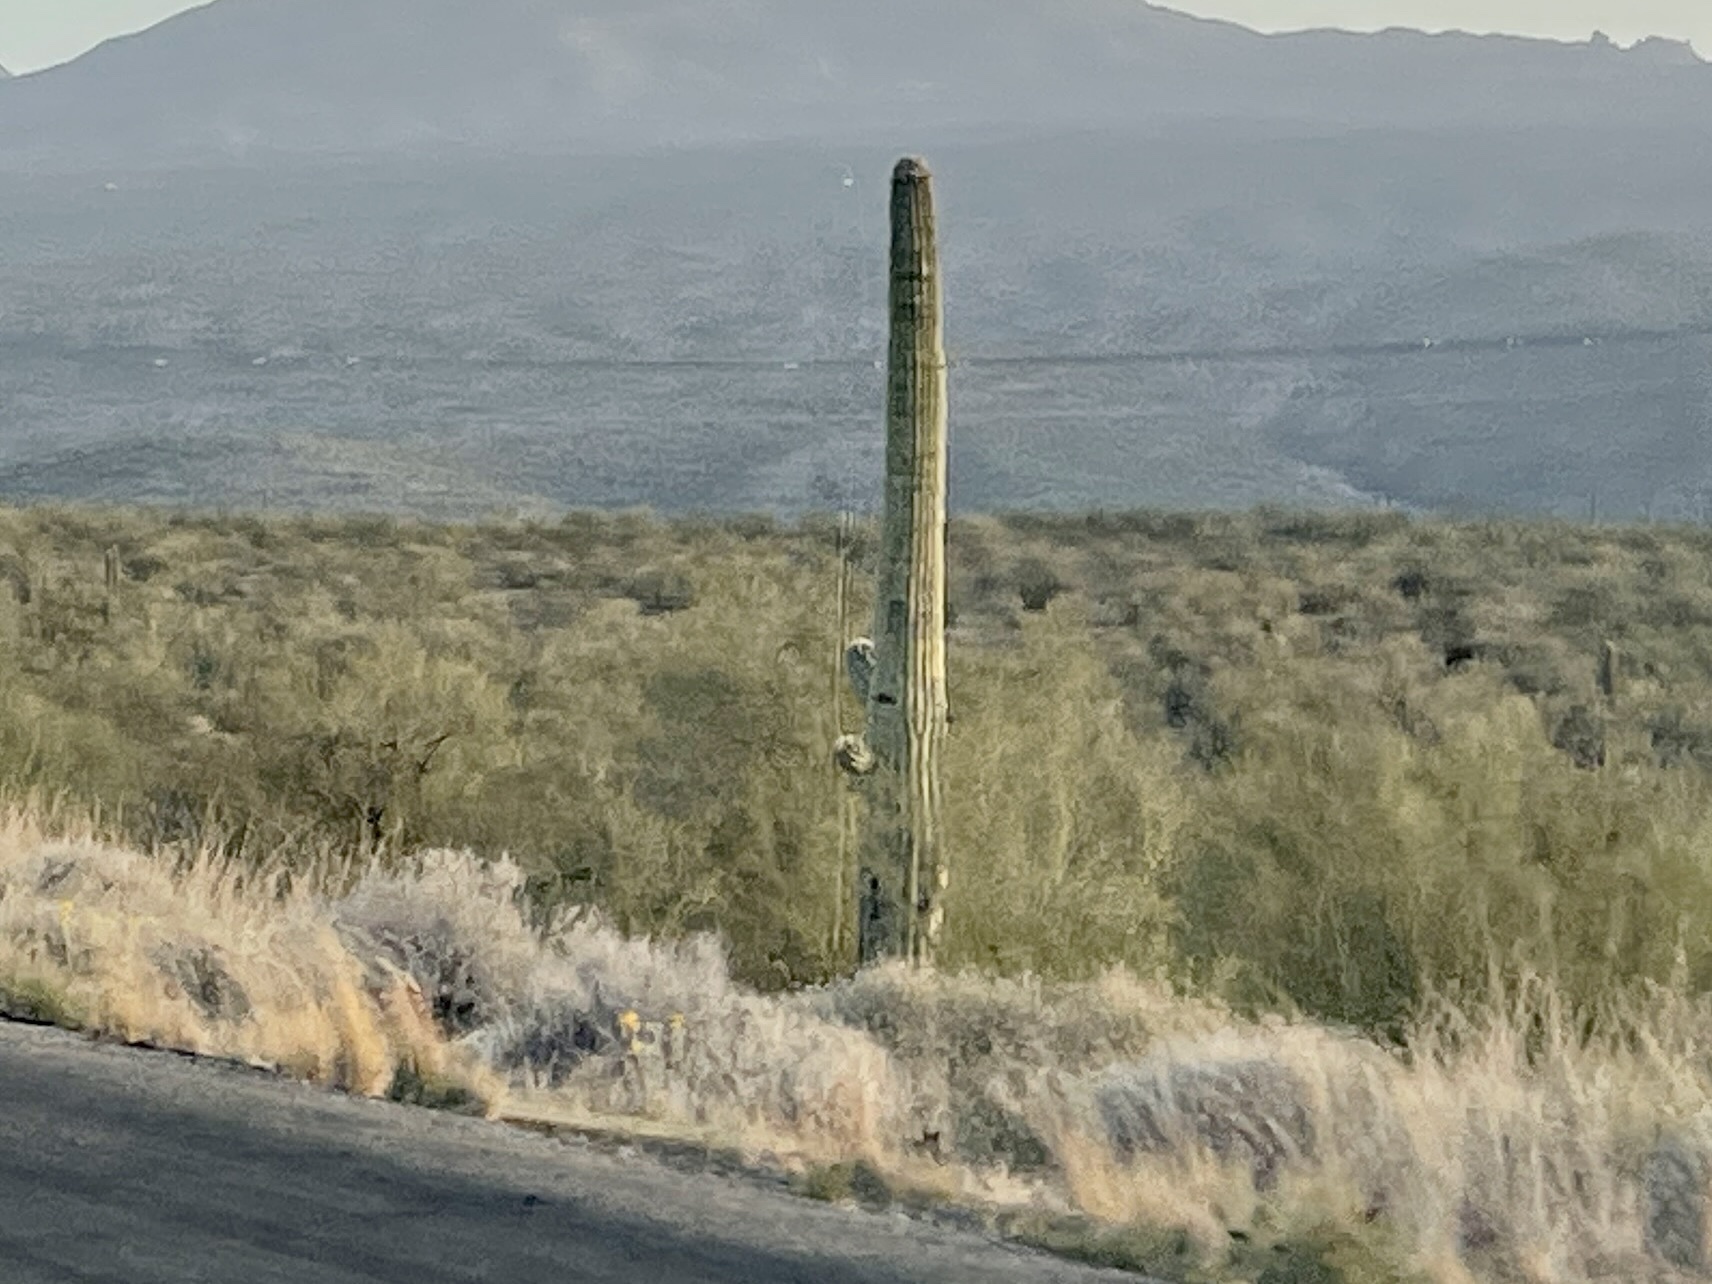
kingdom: Plantae
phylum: Tracheophyta
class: Magnoliopsida
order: Caryophyllales
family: Cactaceae
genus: Carnegiea
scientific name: Carnegiea gigantea
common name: Saguaro
